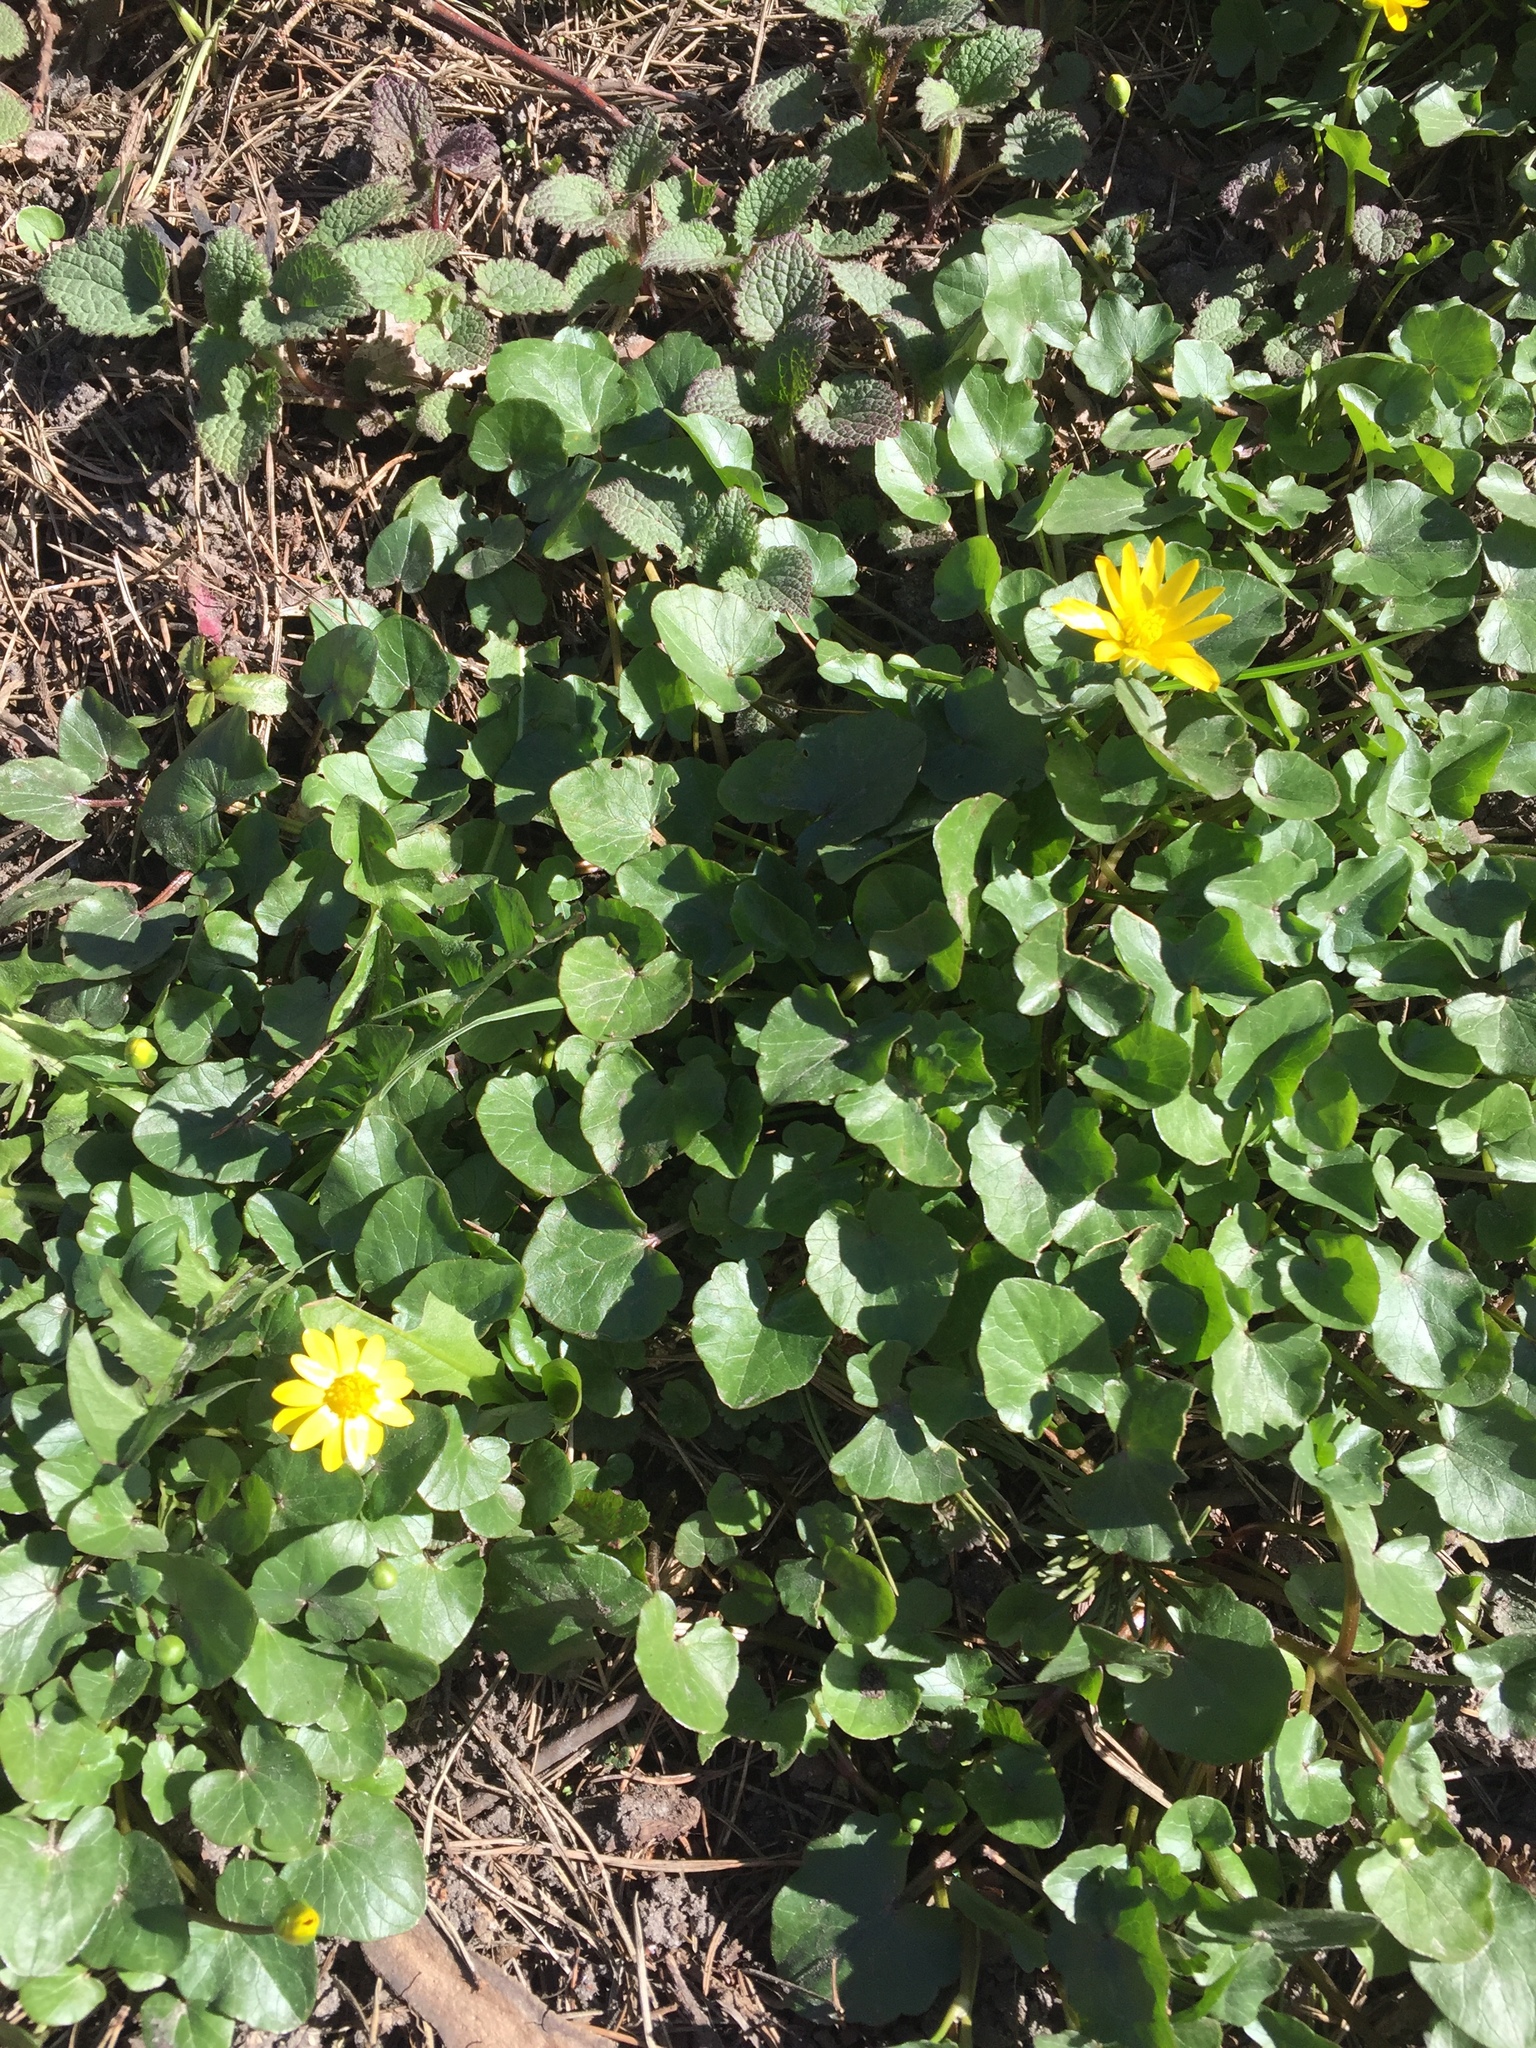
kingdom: Plantae
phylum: Tracheophyta
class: Magnoliopsida
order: Ranunculales
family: Ranunculaceae
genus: Ficaria
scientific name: Ficaria verna
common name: Lesser celandine
